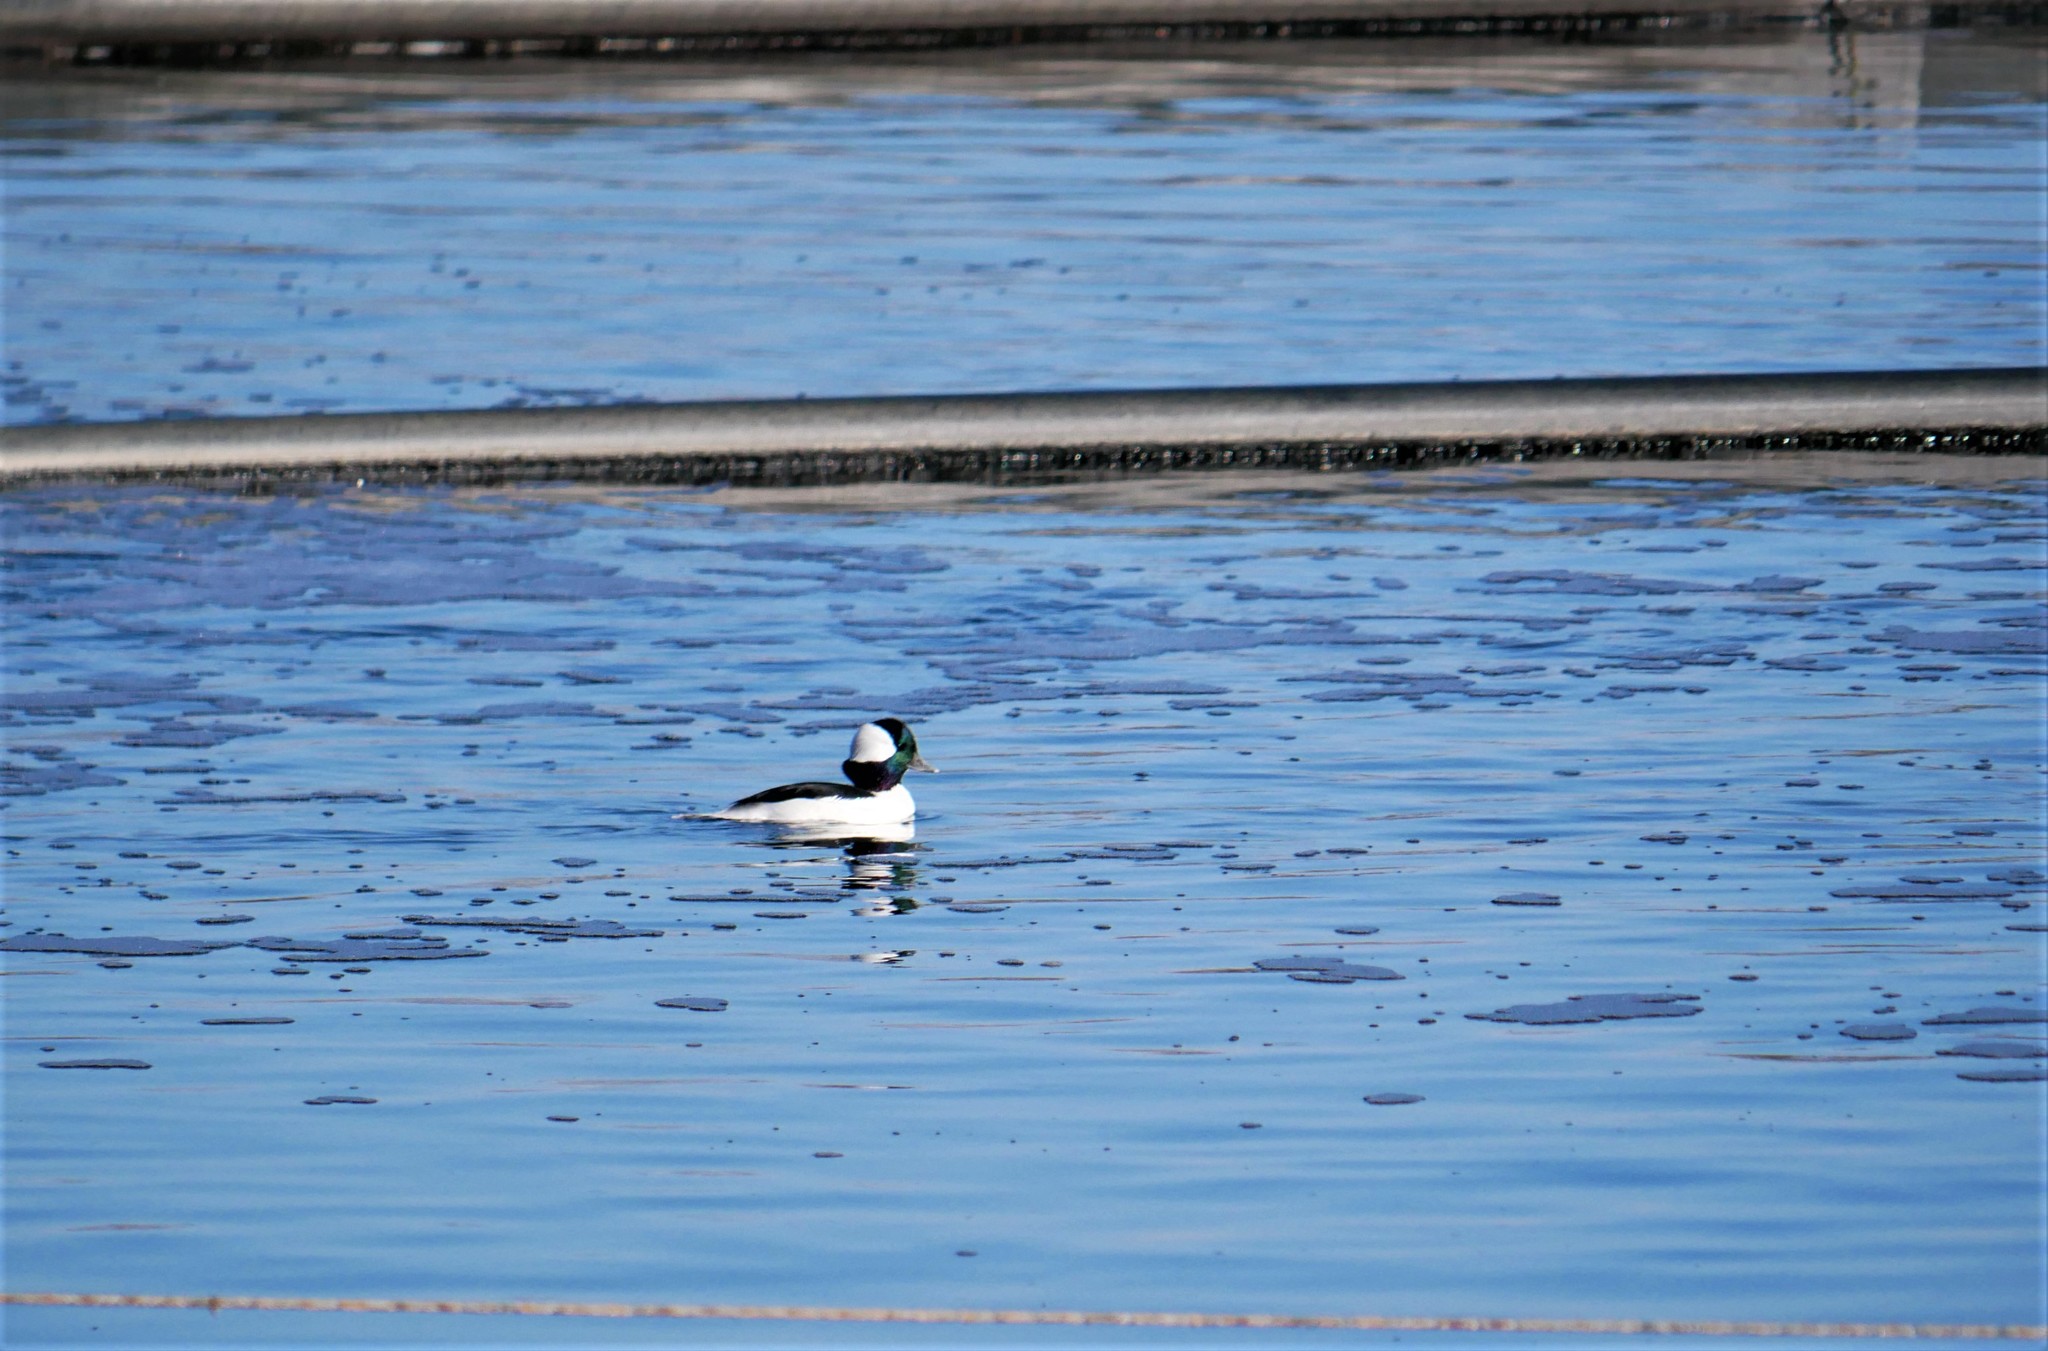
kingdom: Animalia
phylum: Chordata
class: Aves
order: Anseriformes
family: Anatidae
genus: Bucephala
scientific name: Bucephala albeola
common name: Bufflehead
